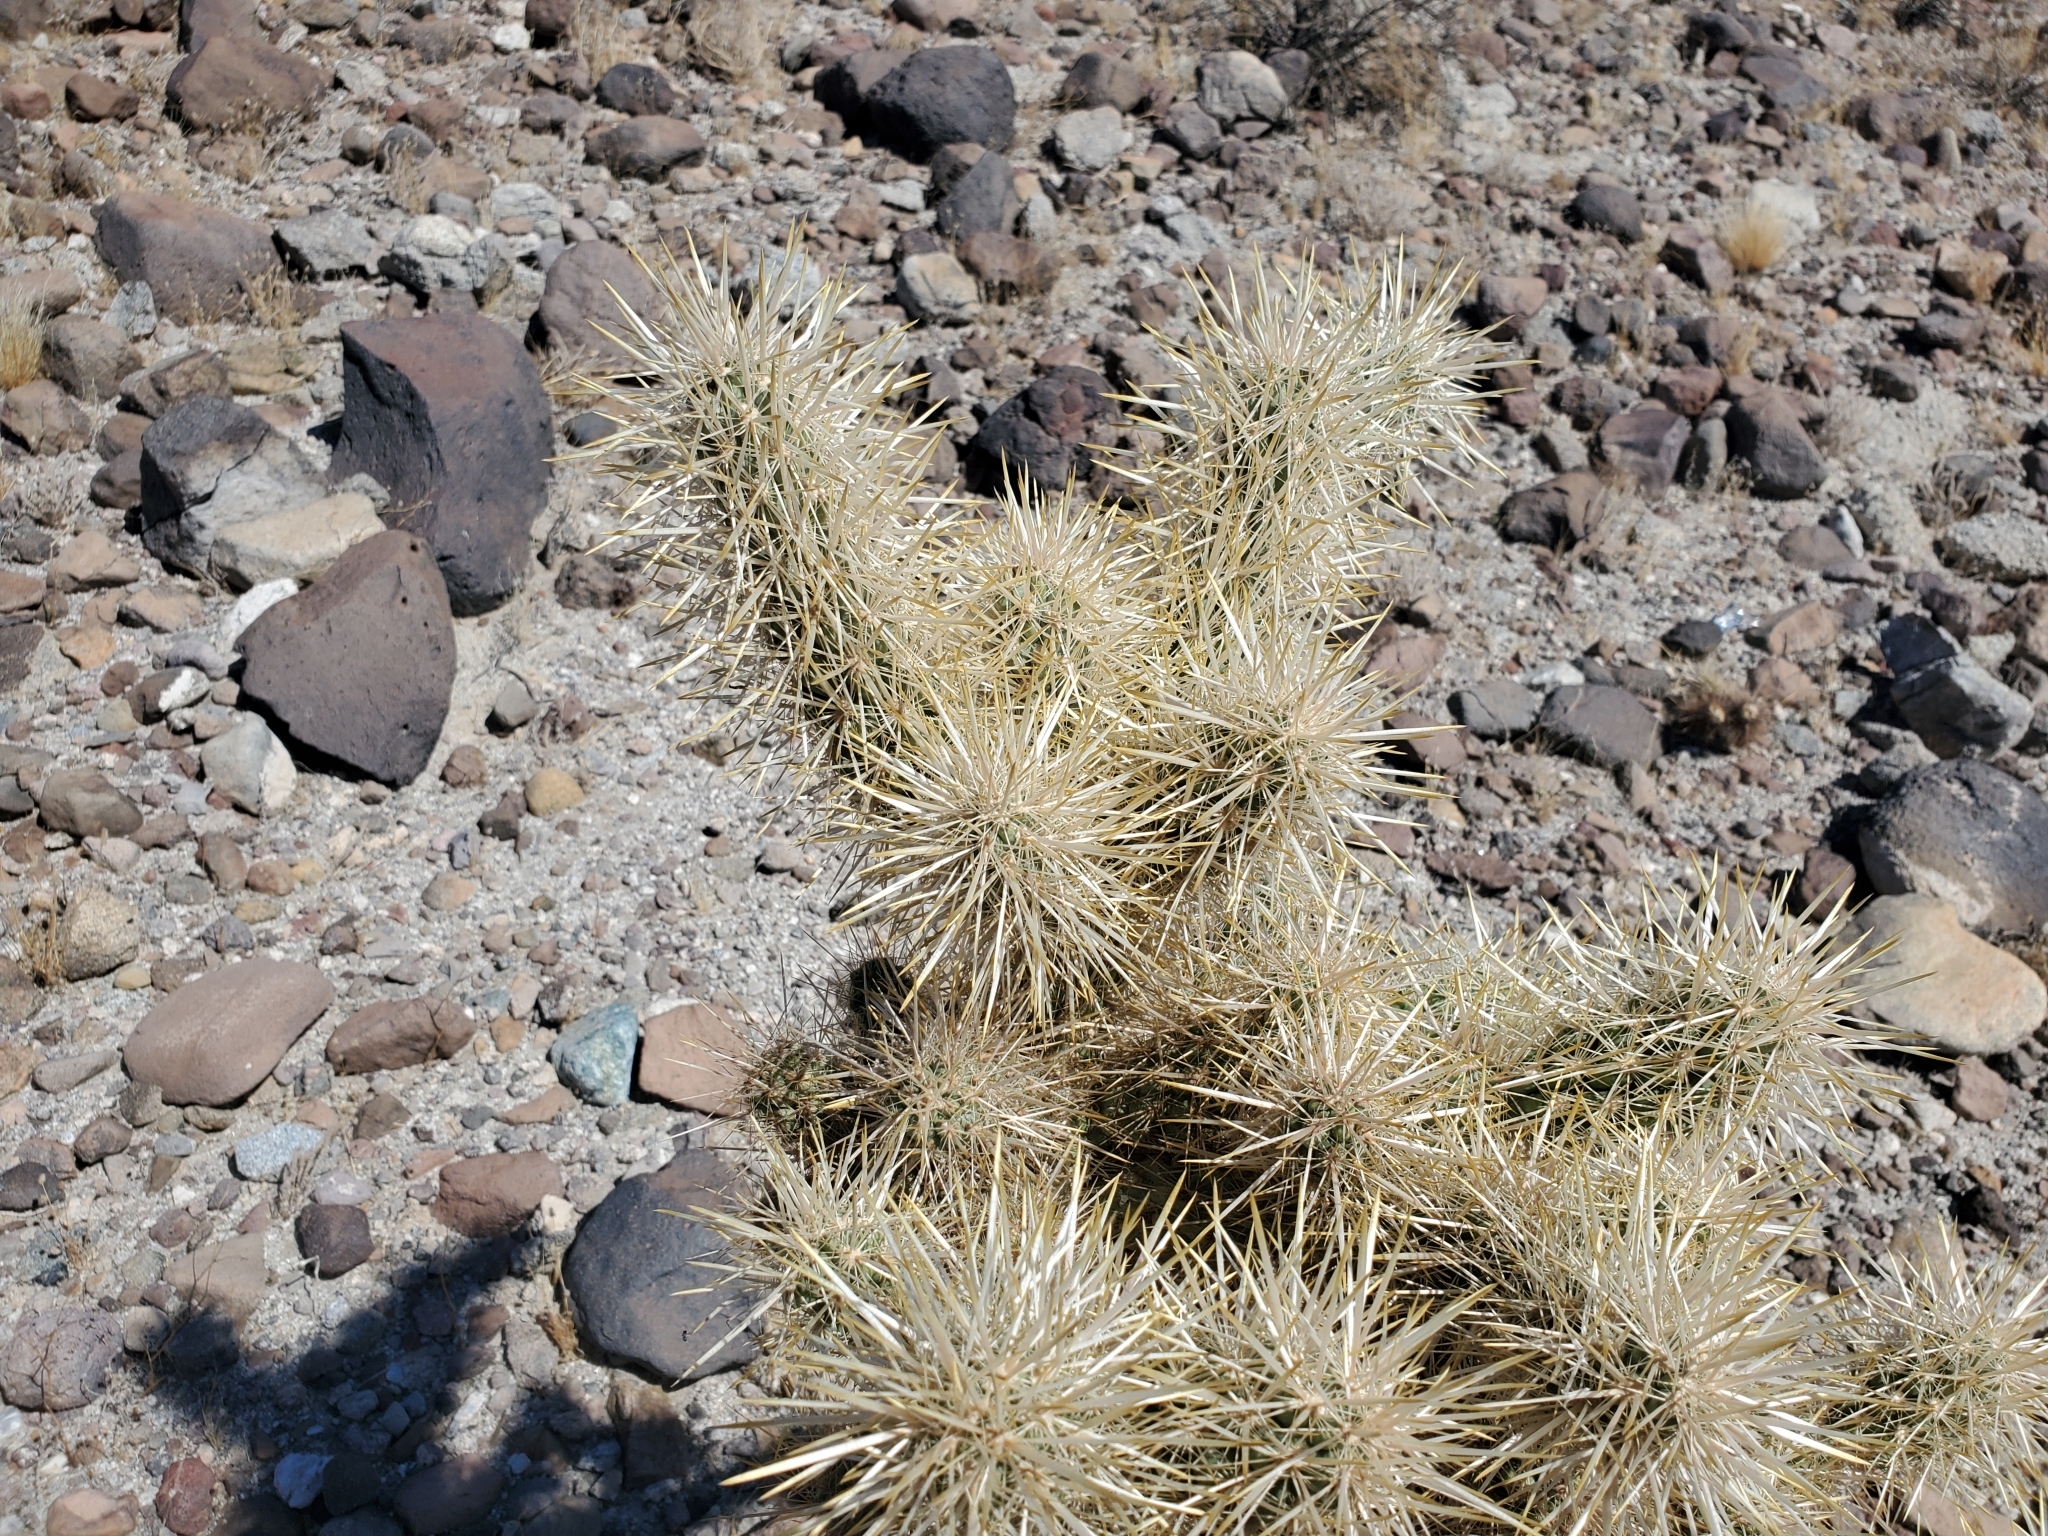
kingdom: Plantae
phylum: Tracheophyta
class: Magnoliopsida
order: Caryophyllales
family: Cactaceae
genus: Cylindropuntia
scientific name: Cylindropuntia echinocarpa
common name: Ground cholla
